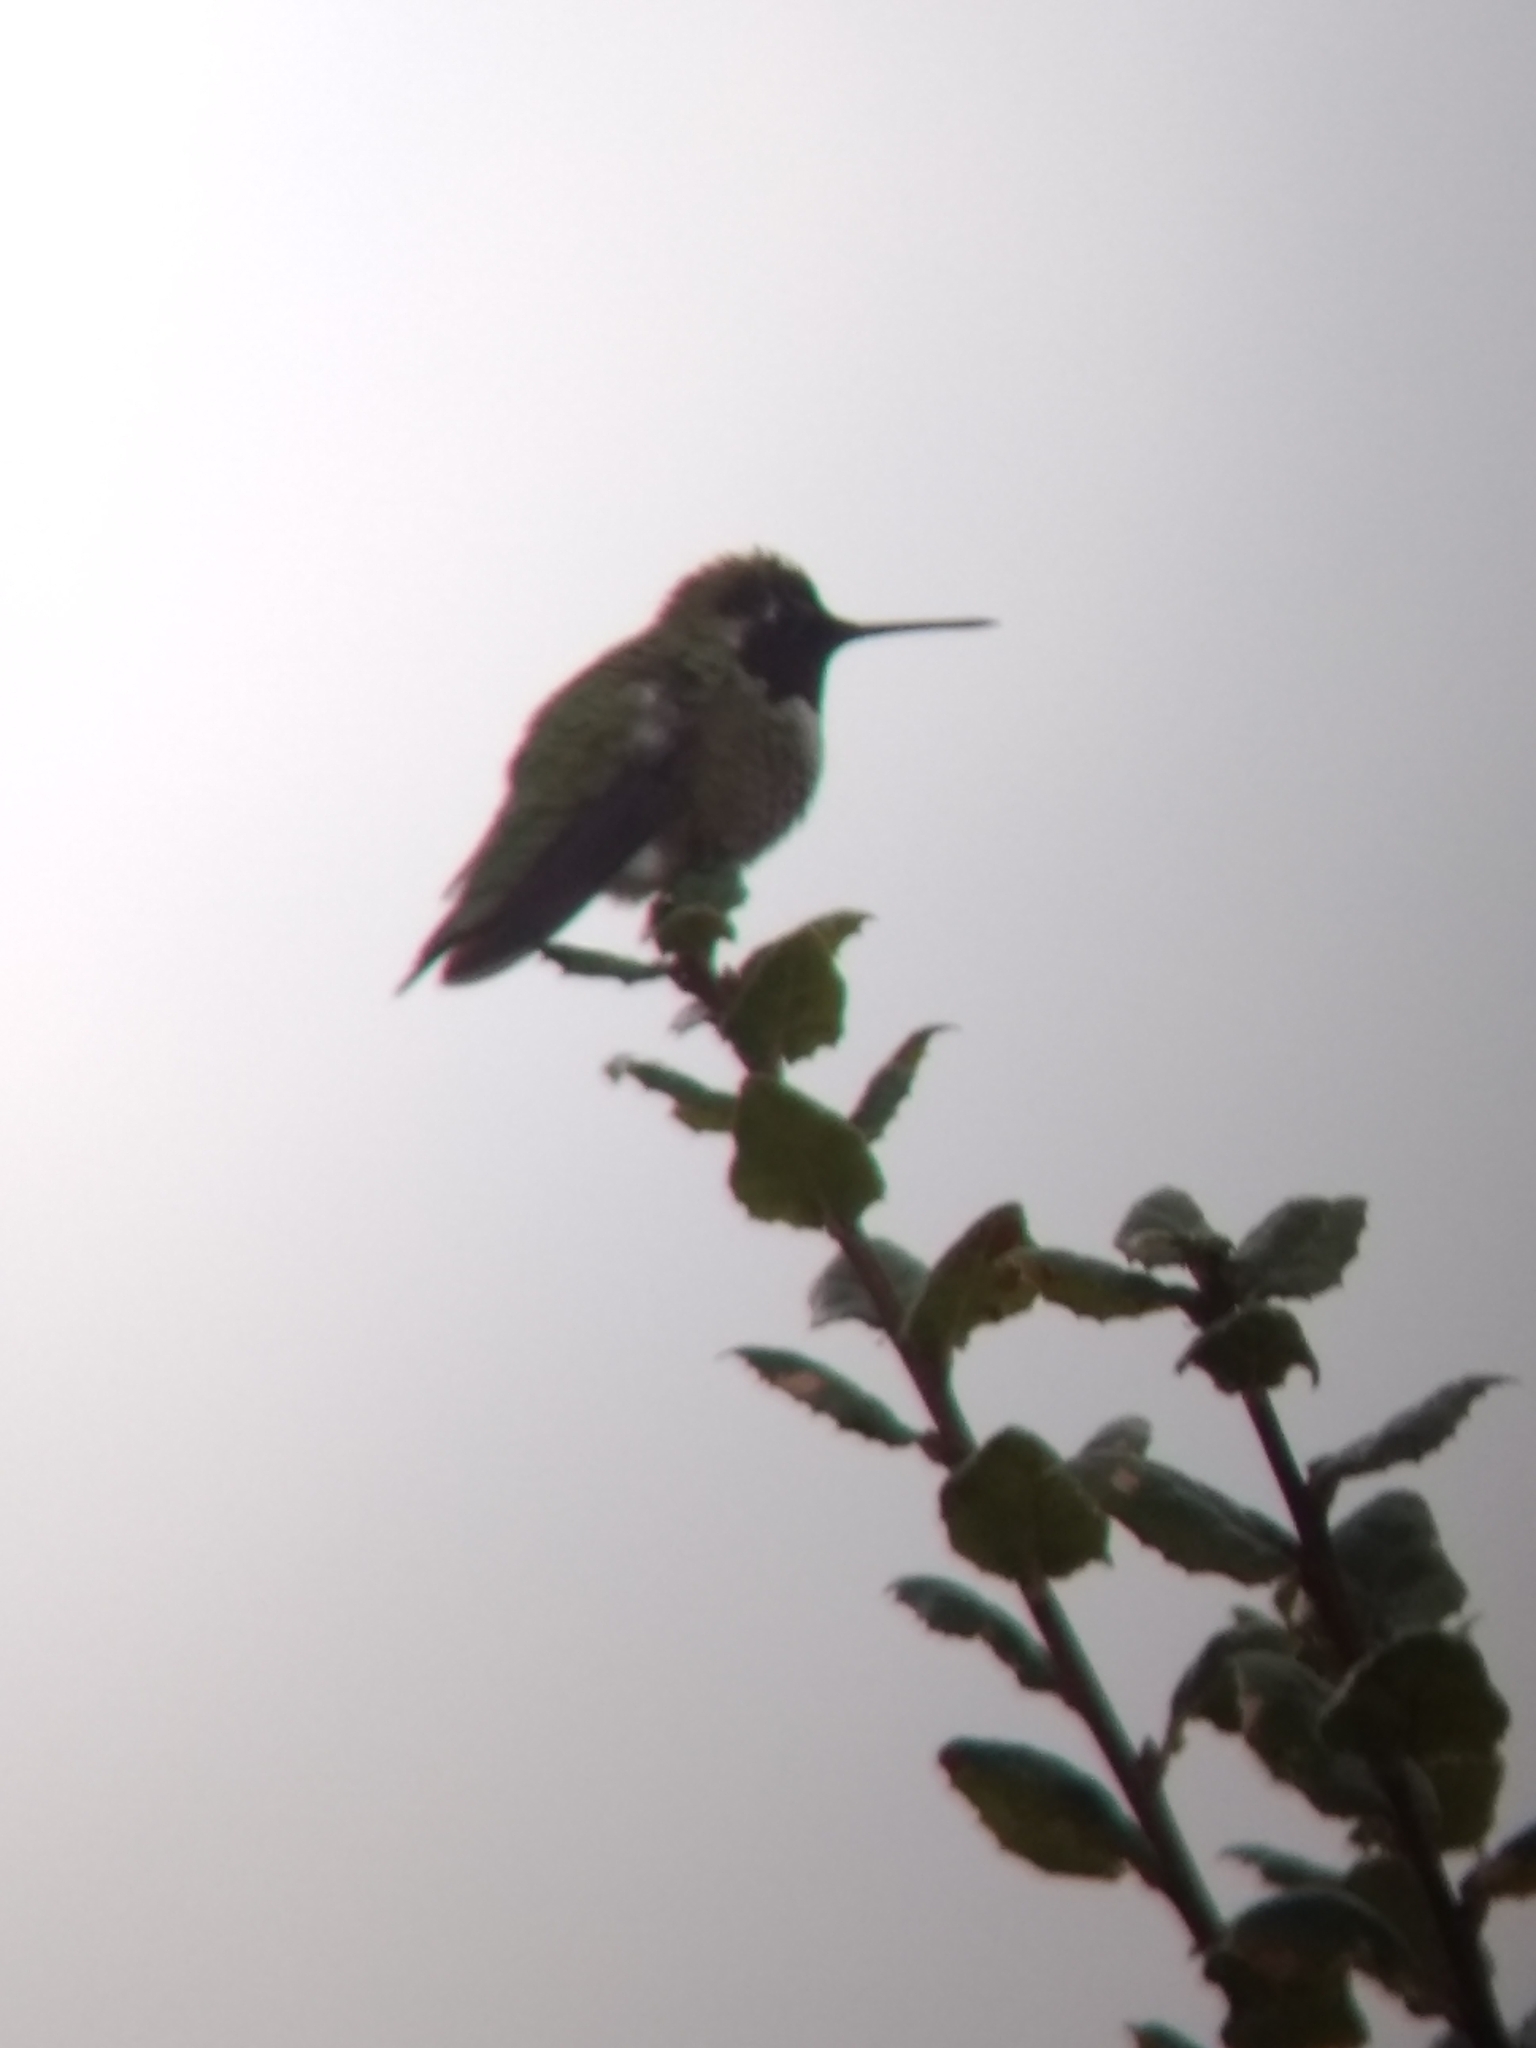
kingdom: Animalia
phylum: Chordata
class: Aves
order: Apodiformes
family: Trochilidae
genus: Calypte
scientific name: Calypte anna
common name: Anna's hummingbird
